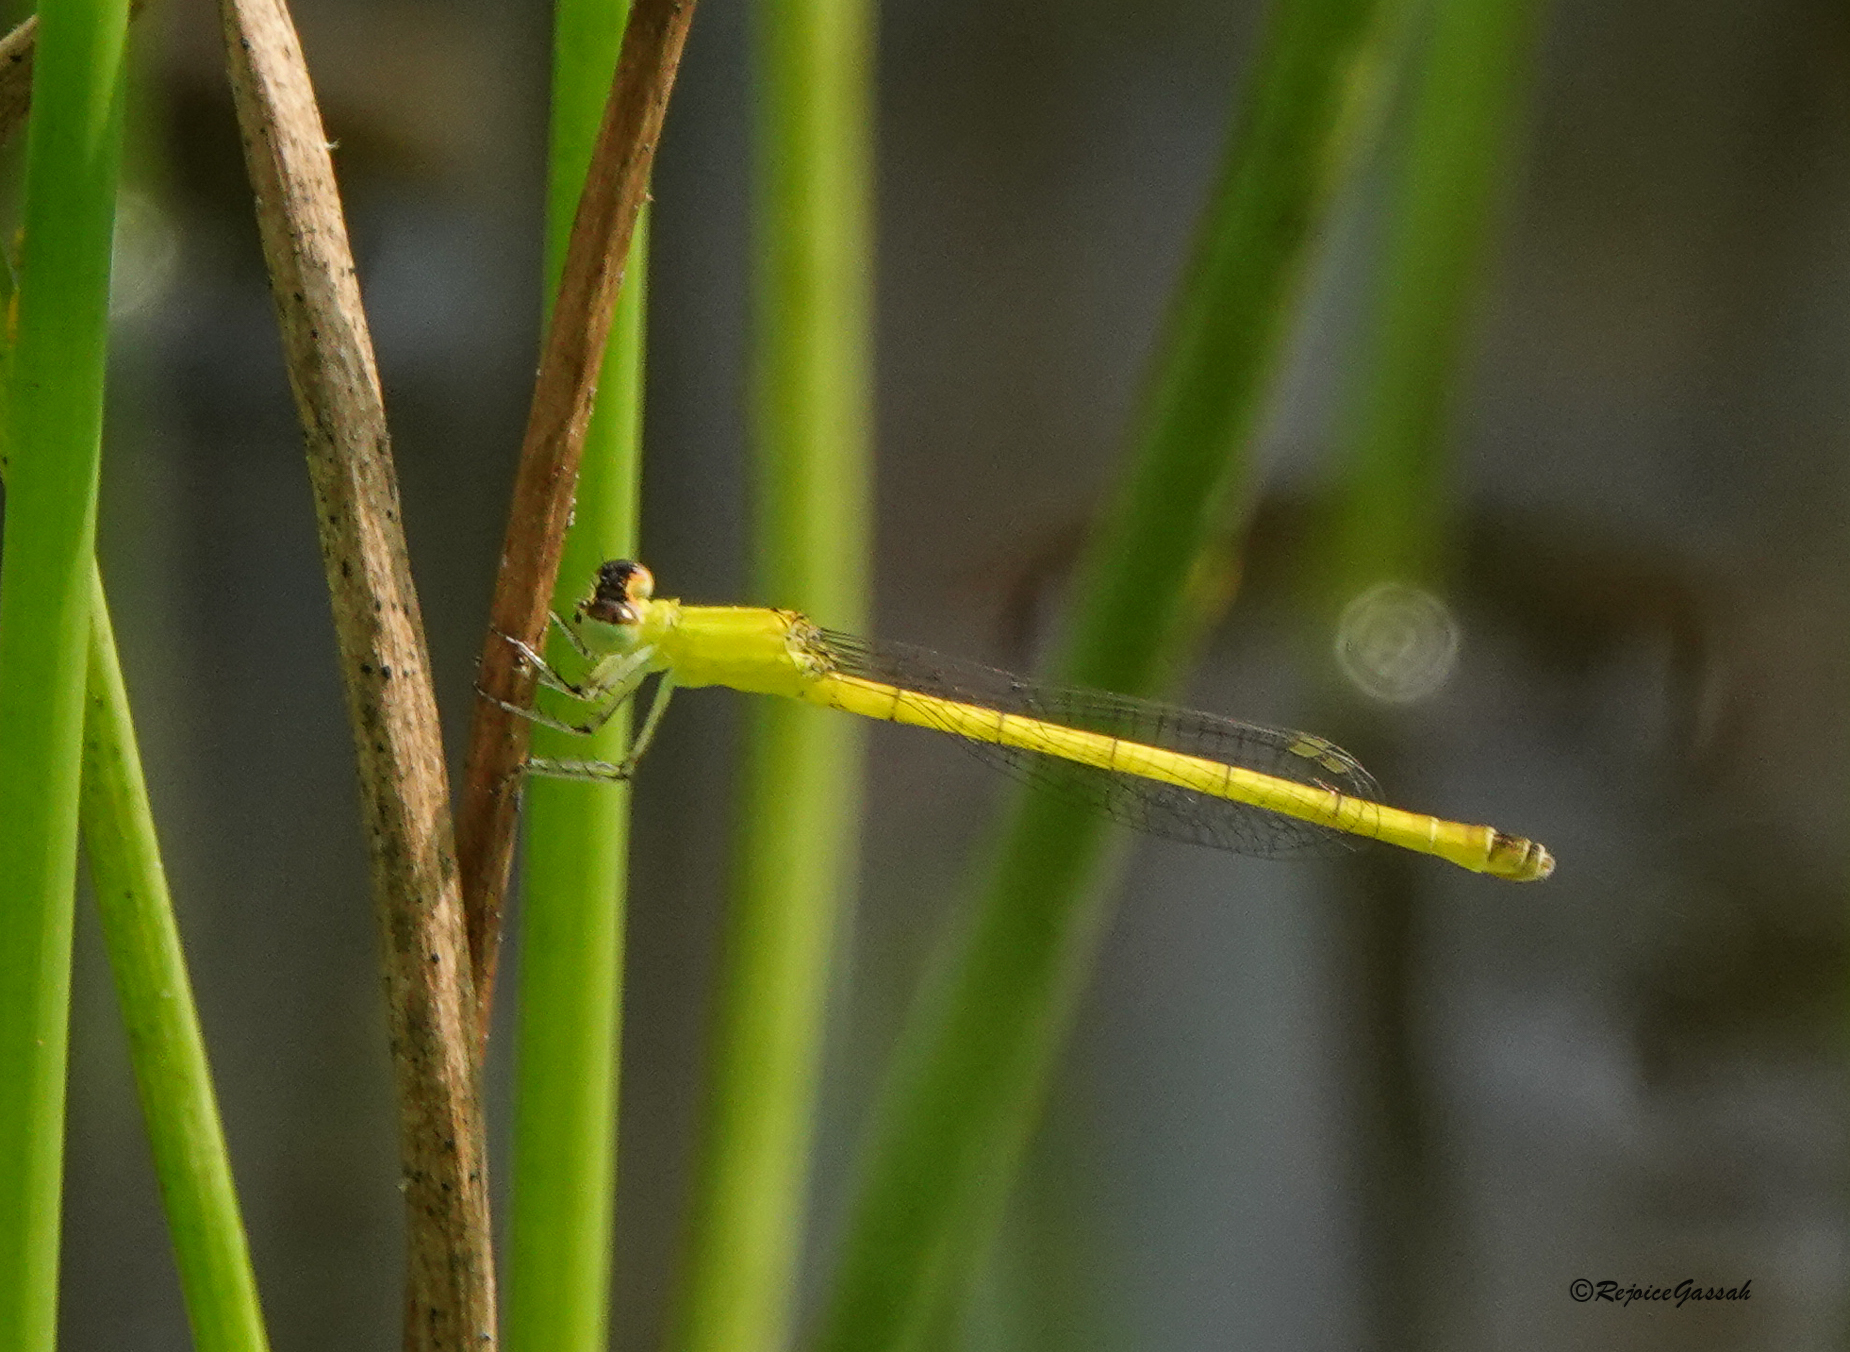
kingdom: Animalia
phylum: Arthropoda
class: Insecta
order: Odonata
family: Coenagrionidae
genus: Agriocnemis
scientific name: Agriocnemis kalinga
